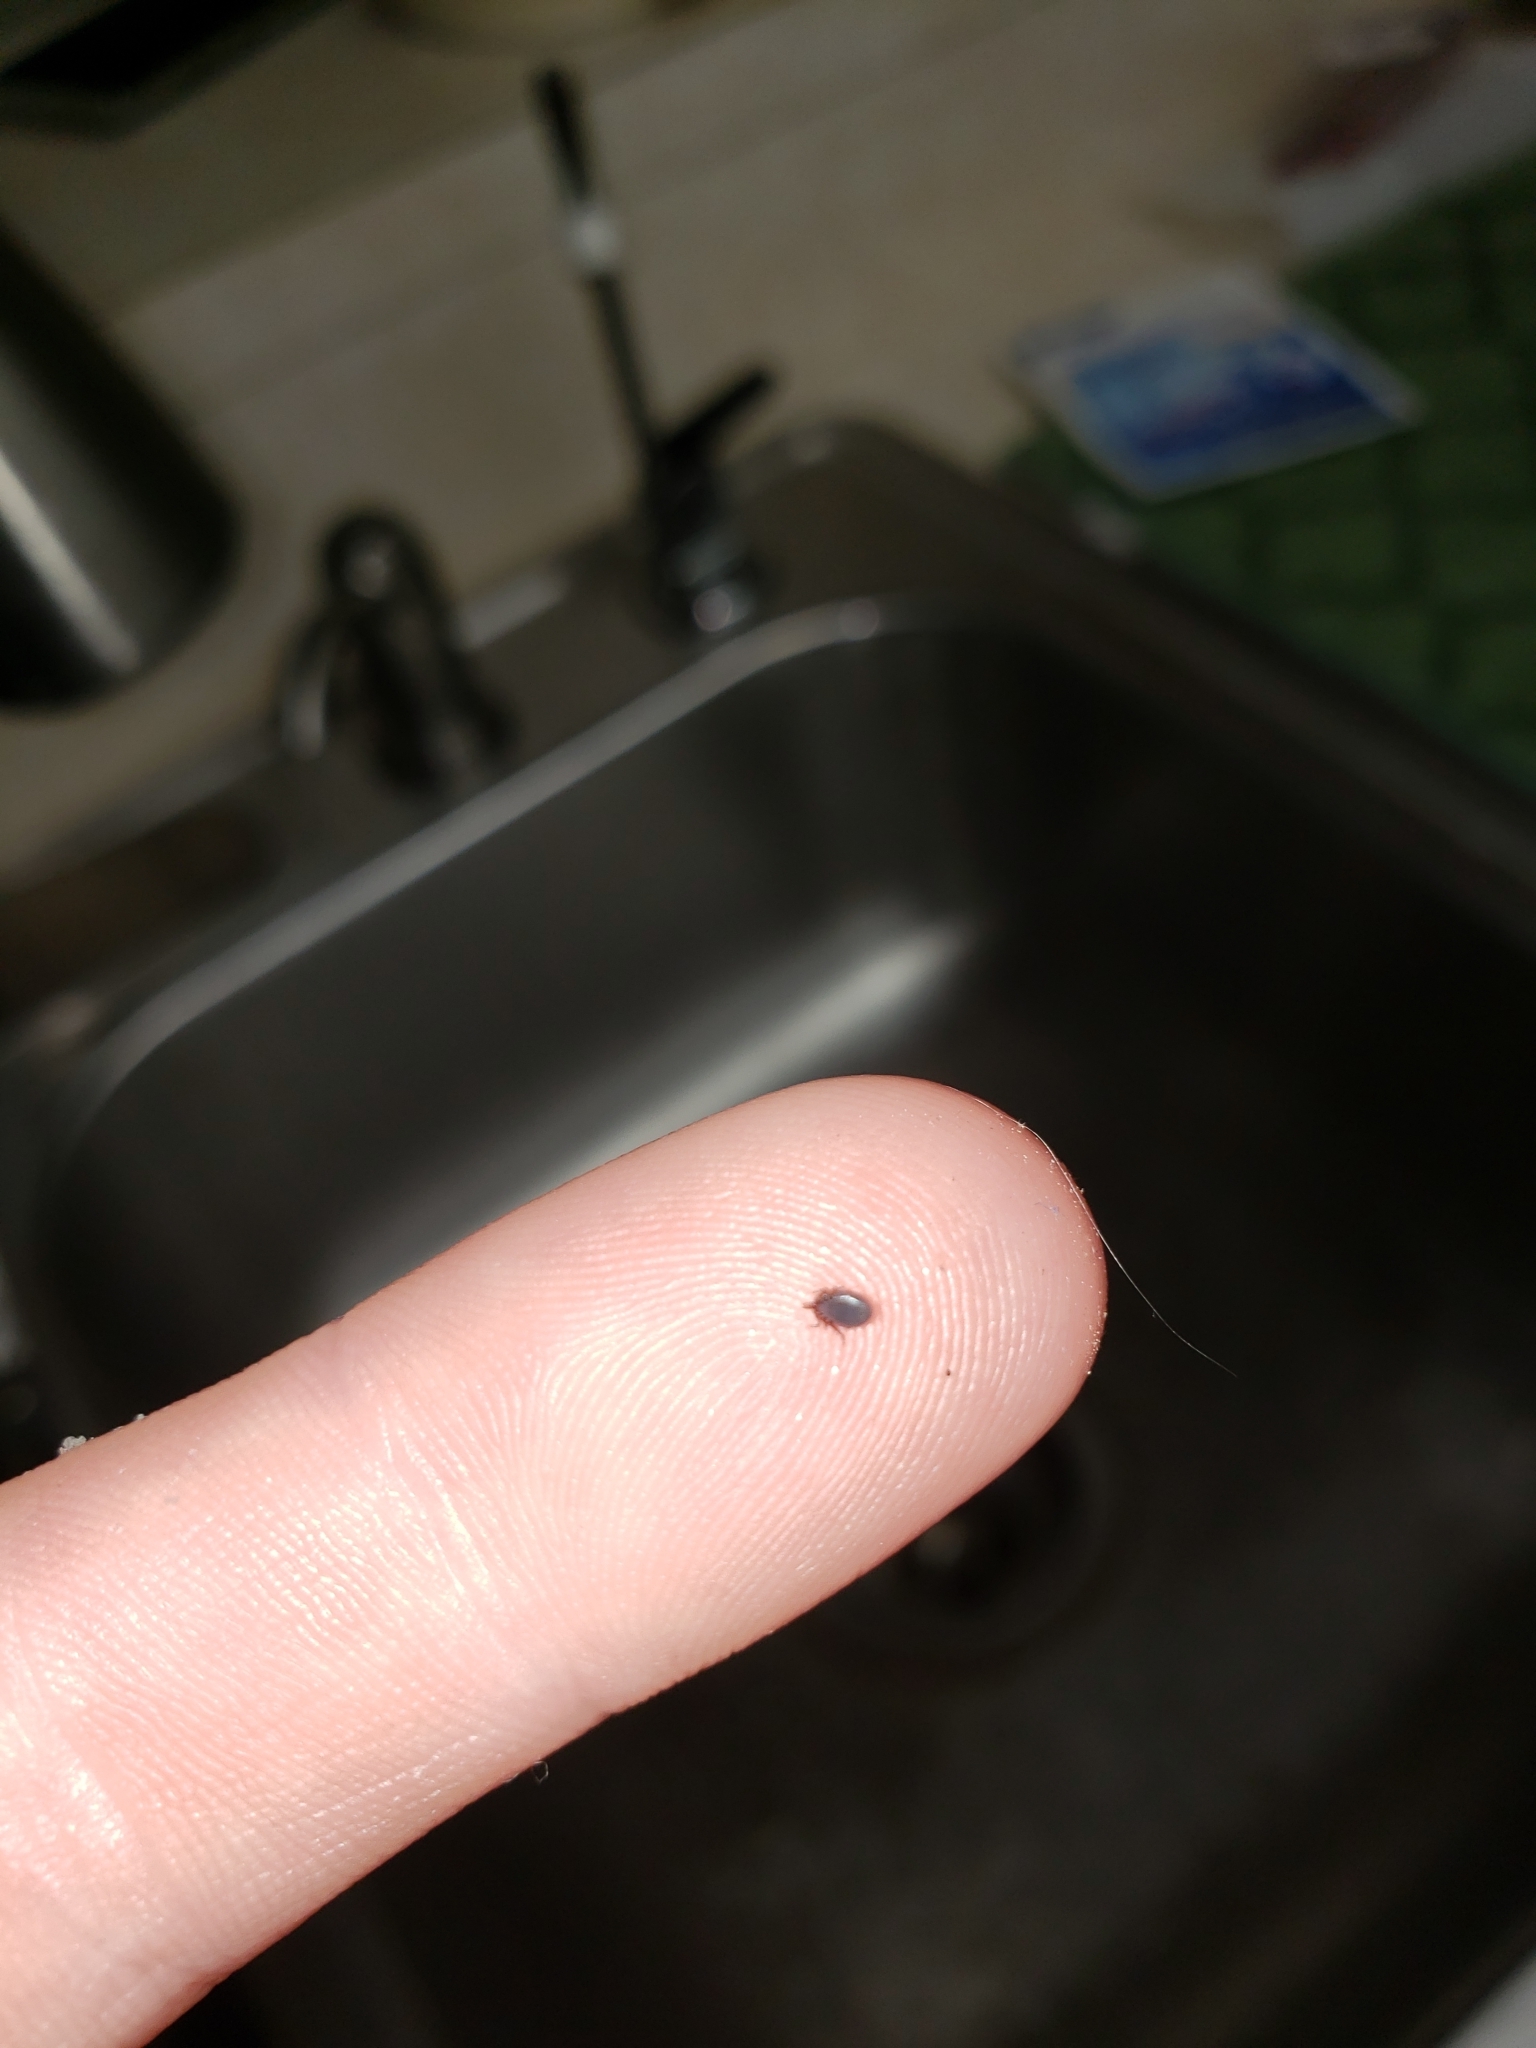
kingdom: Animalia
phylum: Arthropoda
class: Arachnida
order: Ixodida
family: Ixodidae
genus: Ixodes
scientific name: Ixodes scapularis
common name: Black legged tick
